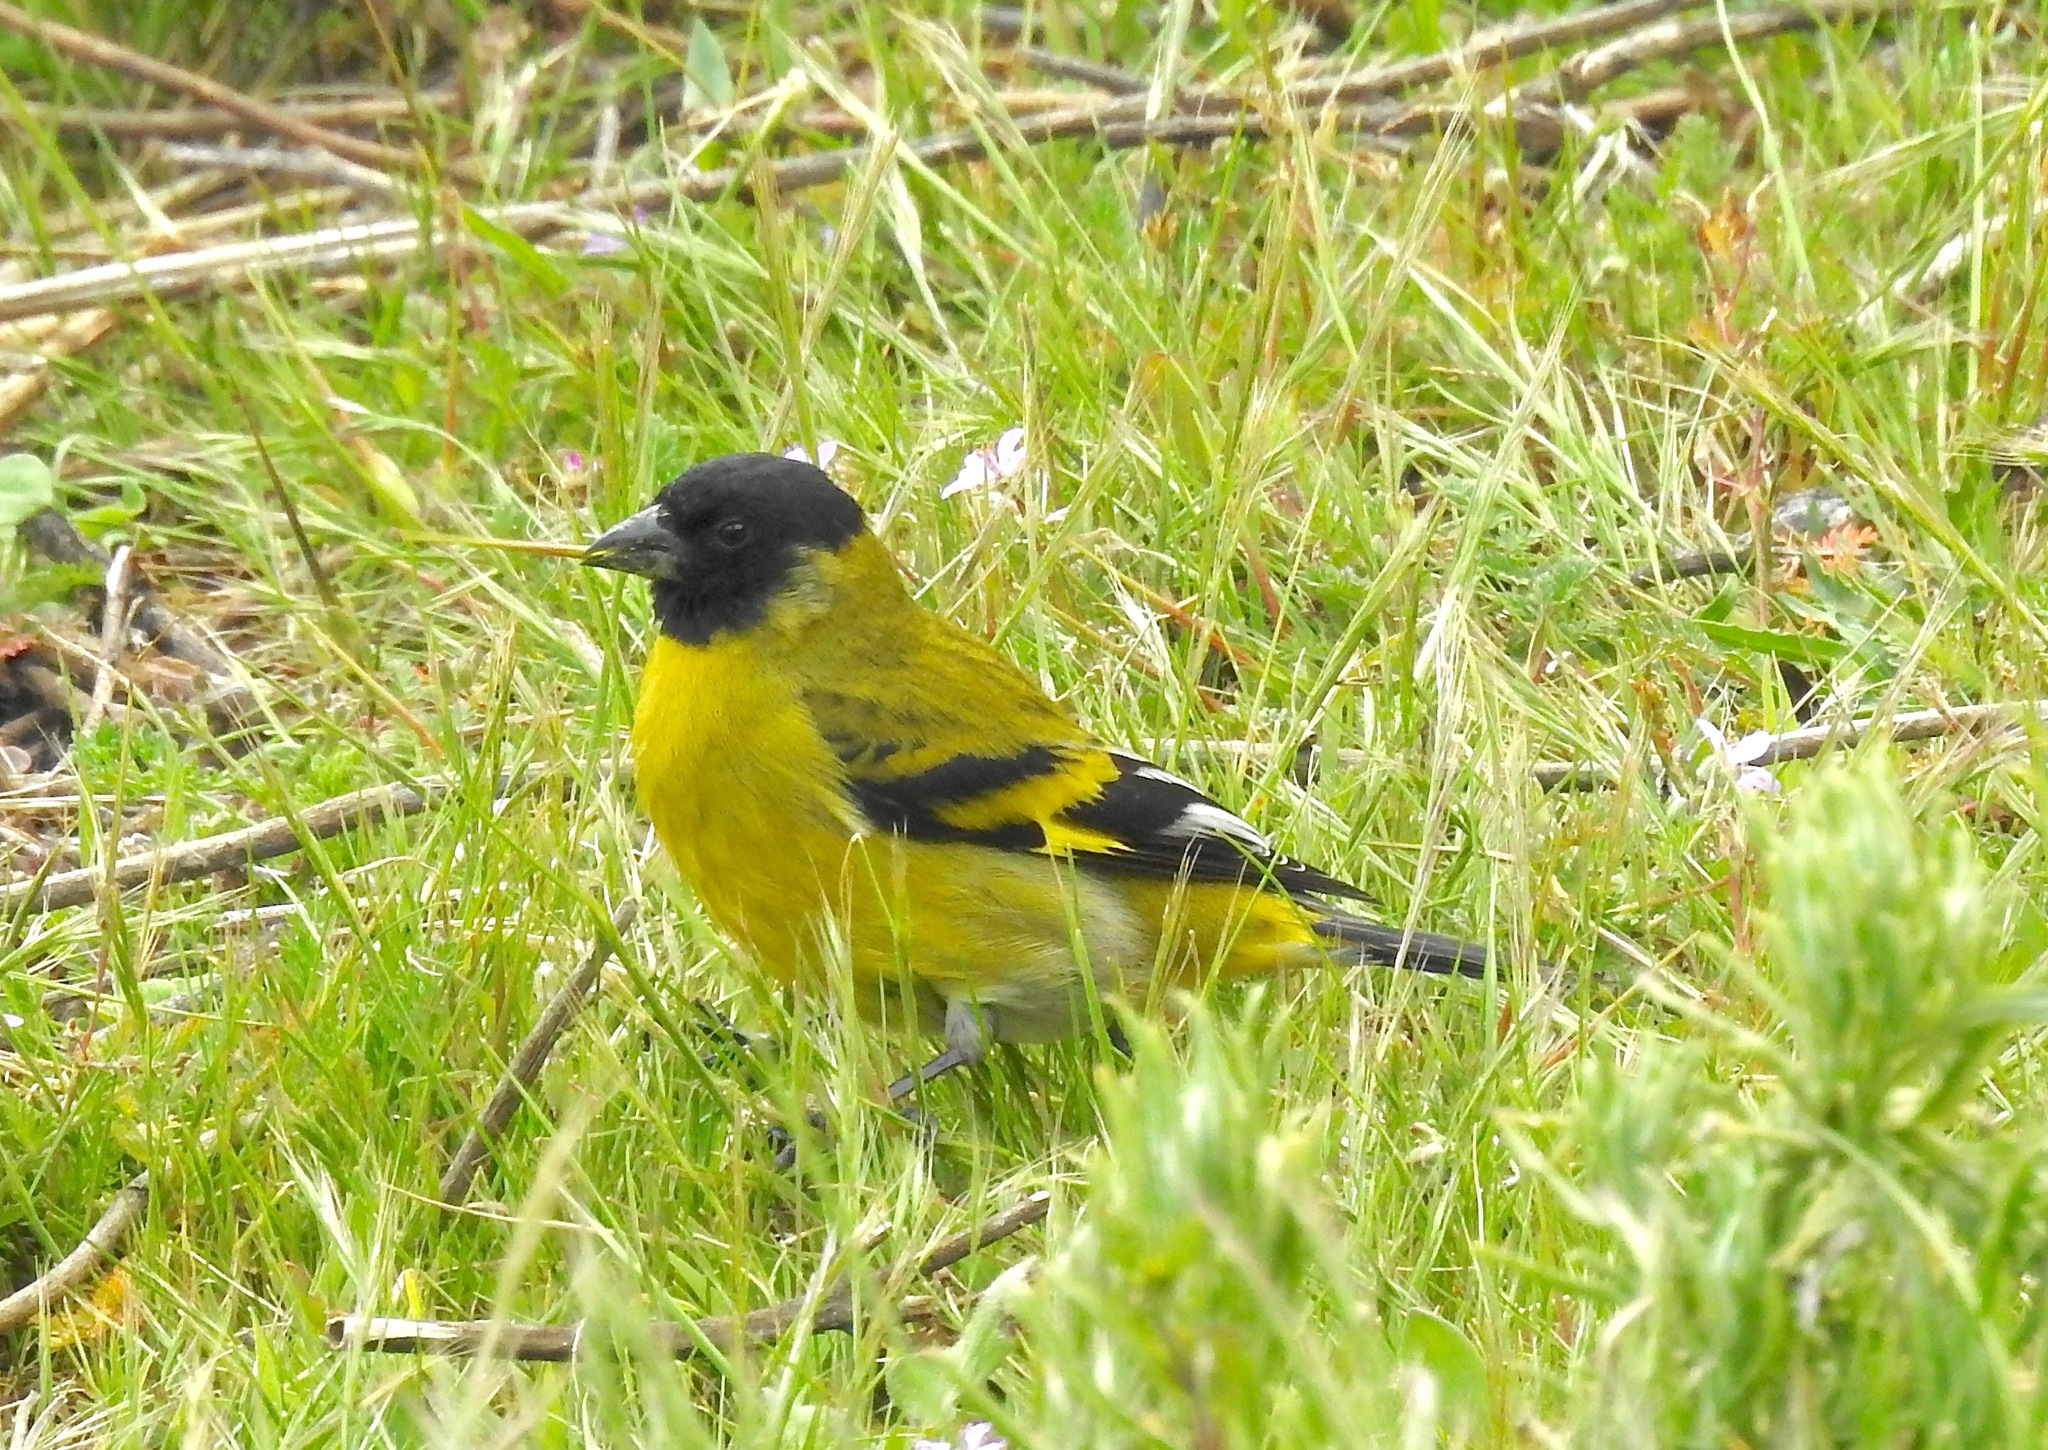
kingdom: Animalia
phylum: Chordata
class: Aves
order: Passeriformes
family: Fringillidae
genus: Spinus
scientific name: Spinus magellanicus
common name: Hooded siskin
